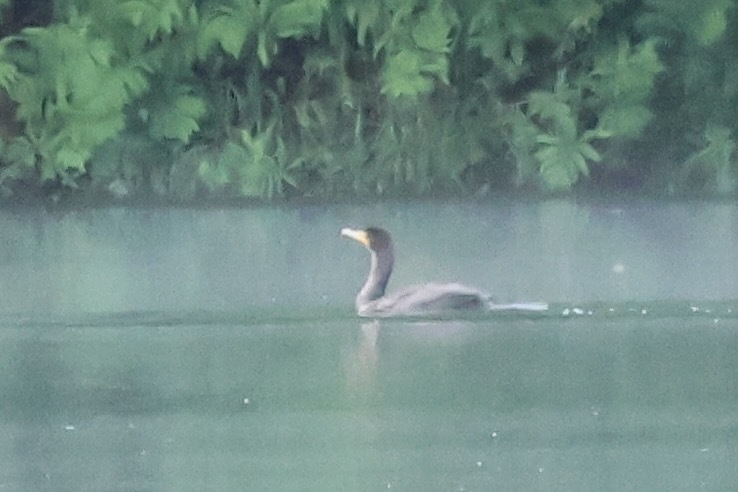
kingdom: Animalia
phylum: Chordata
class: Aves
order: Suliformes
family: Phalacrocoracidae
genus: Phalacrocorax
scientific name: Phalacrocorax auritus
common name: Double-crested cormorant
